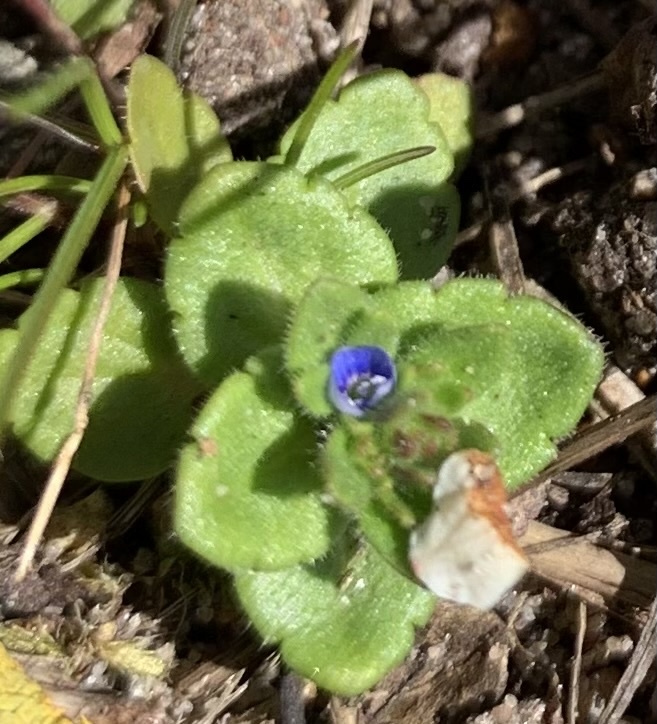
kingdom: Plantae
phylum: Tracheophyta
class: Magnoliopsida
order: Lamiales
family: Plantaginaceae
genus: Veronica
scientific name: Veronica arvensis
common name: Corn speedwell
